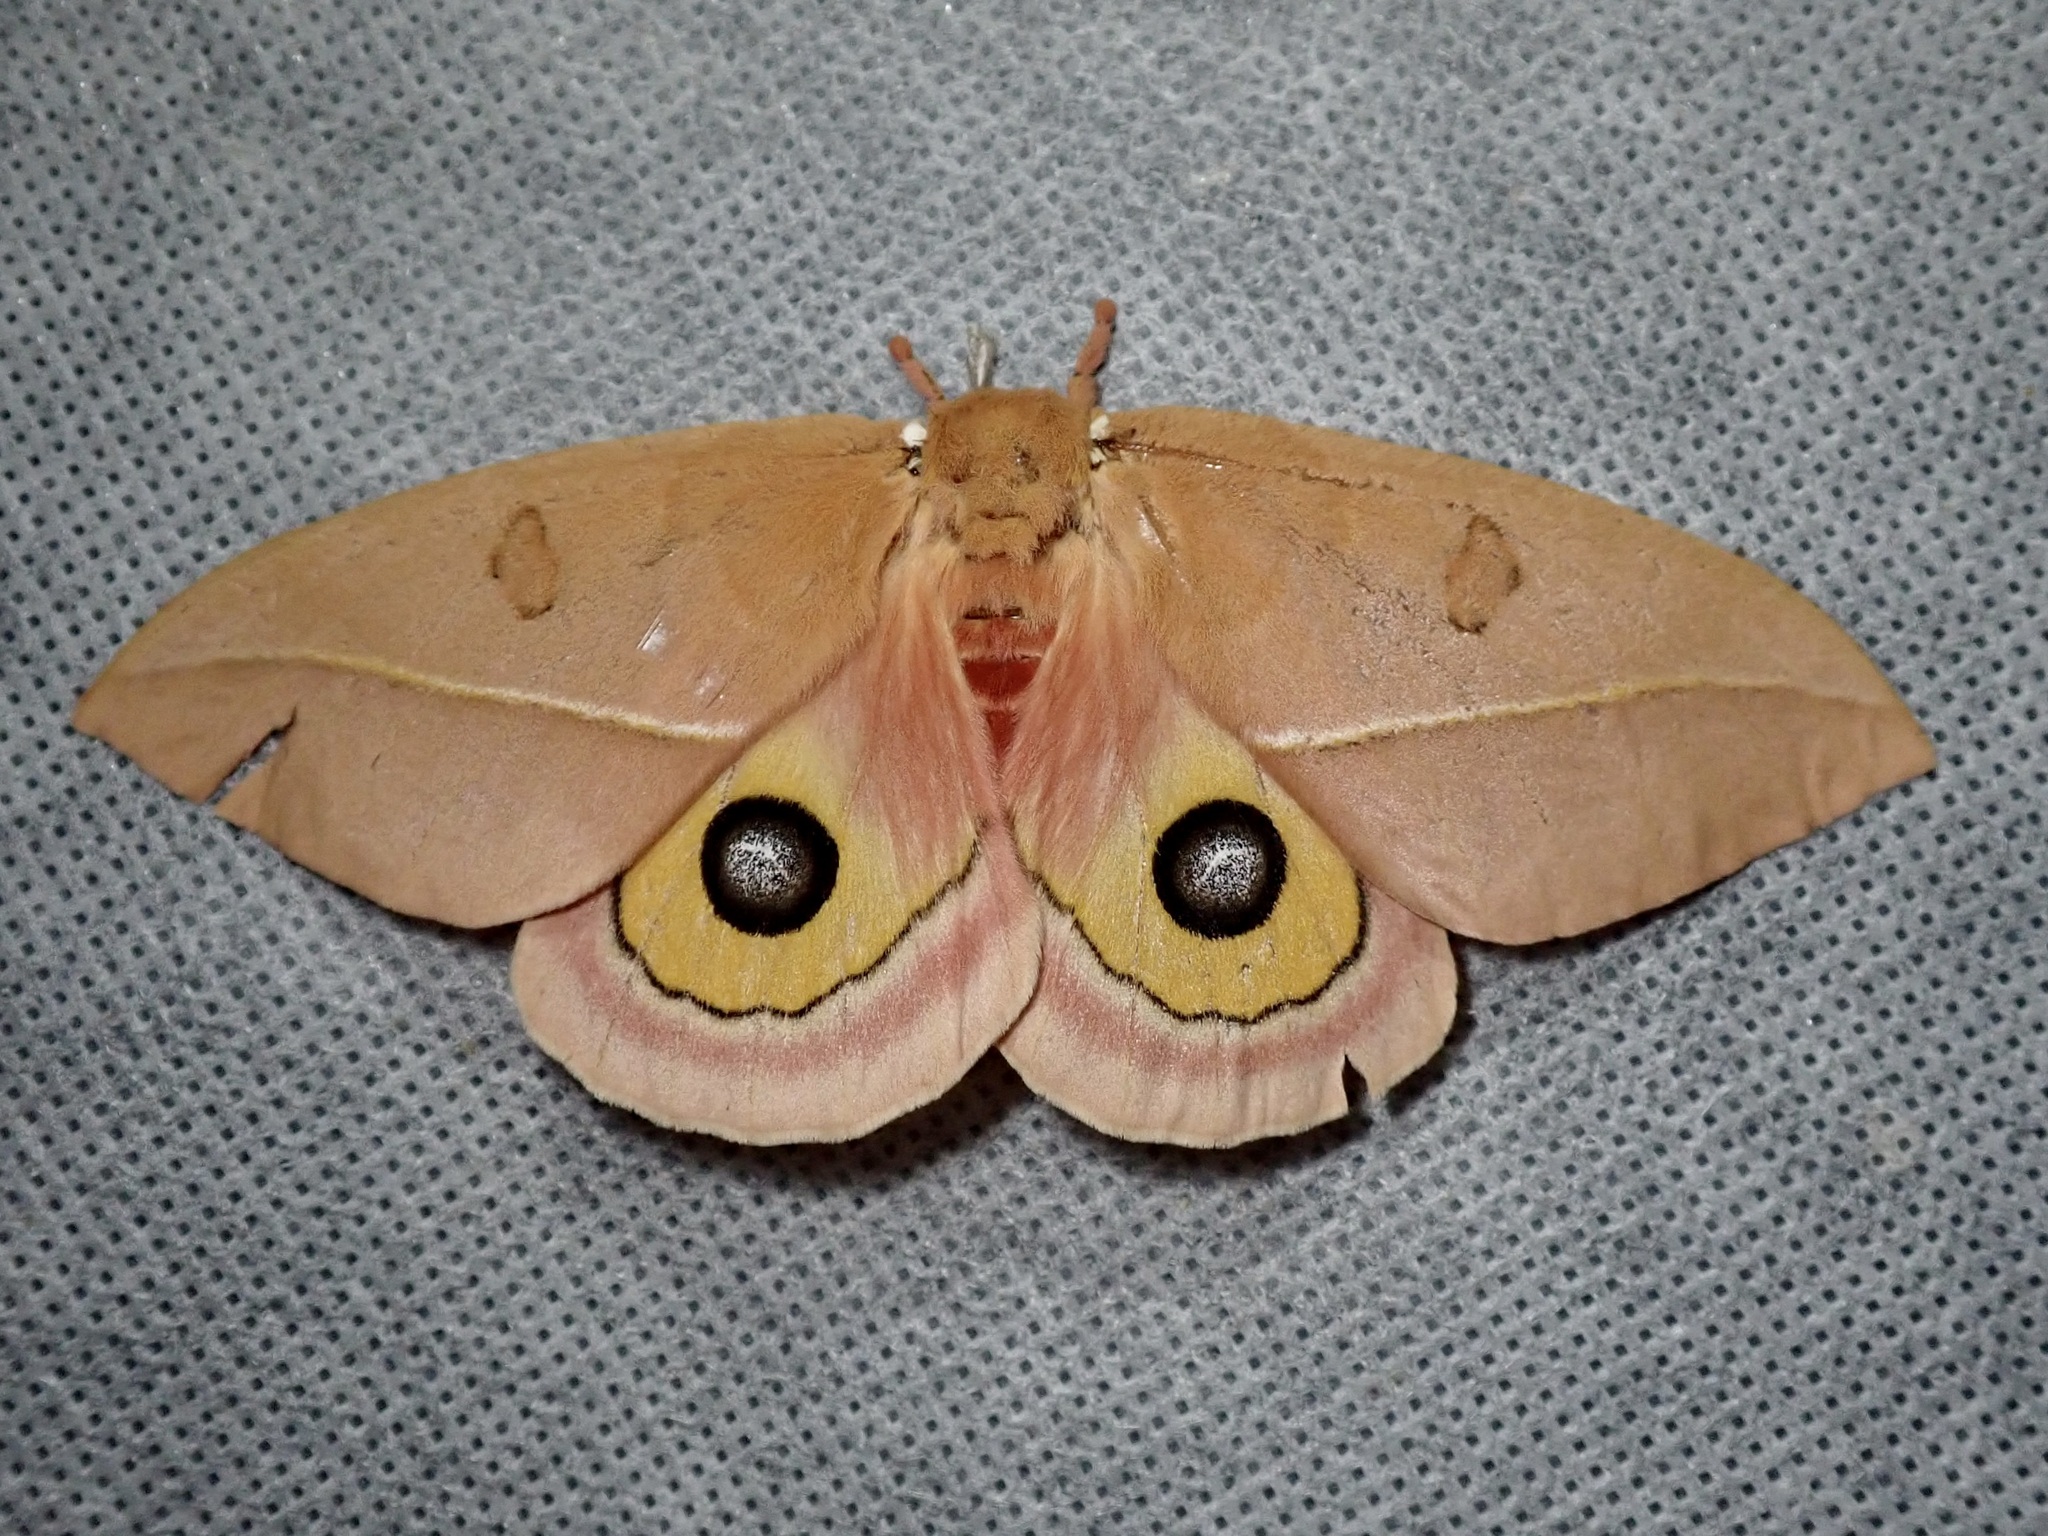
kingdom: Animalia
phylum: Arthropoda
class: Insecta
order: Lepidoptera
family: Saturniidae
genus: Automeris
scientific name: Automeris cecrops
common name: Cecrops eyed silkmoth
